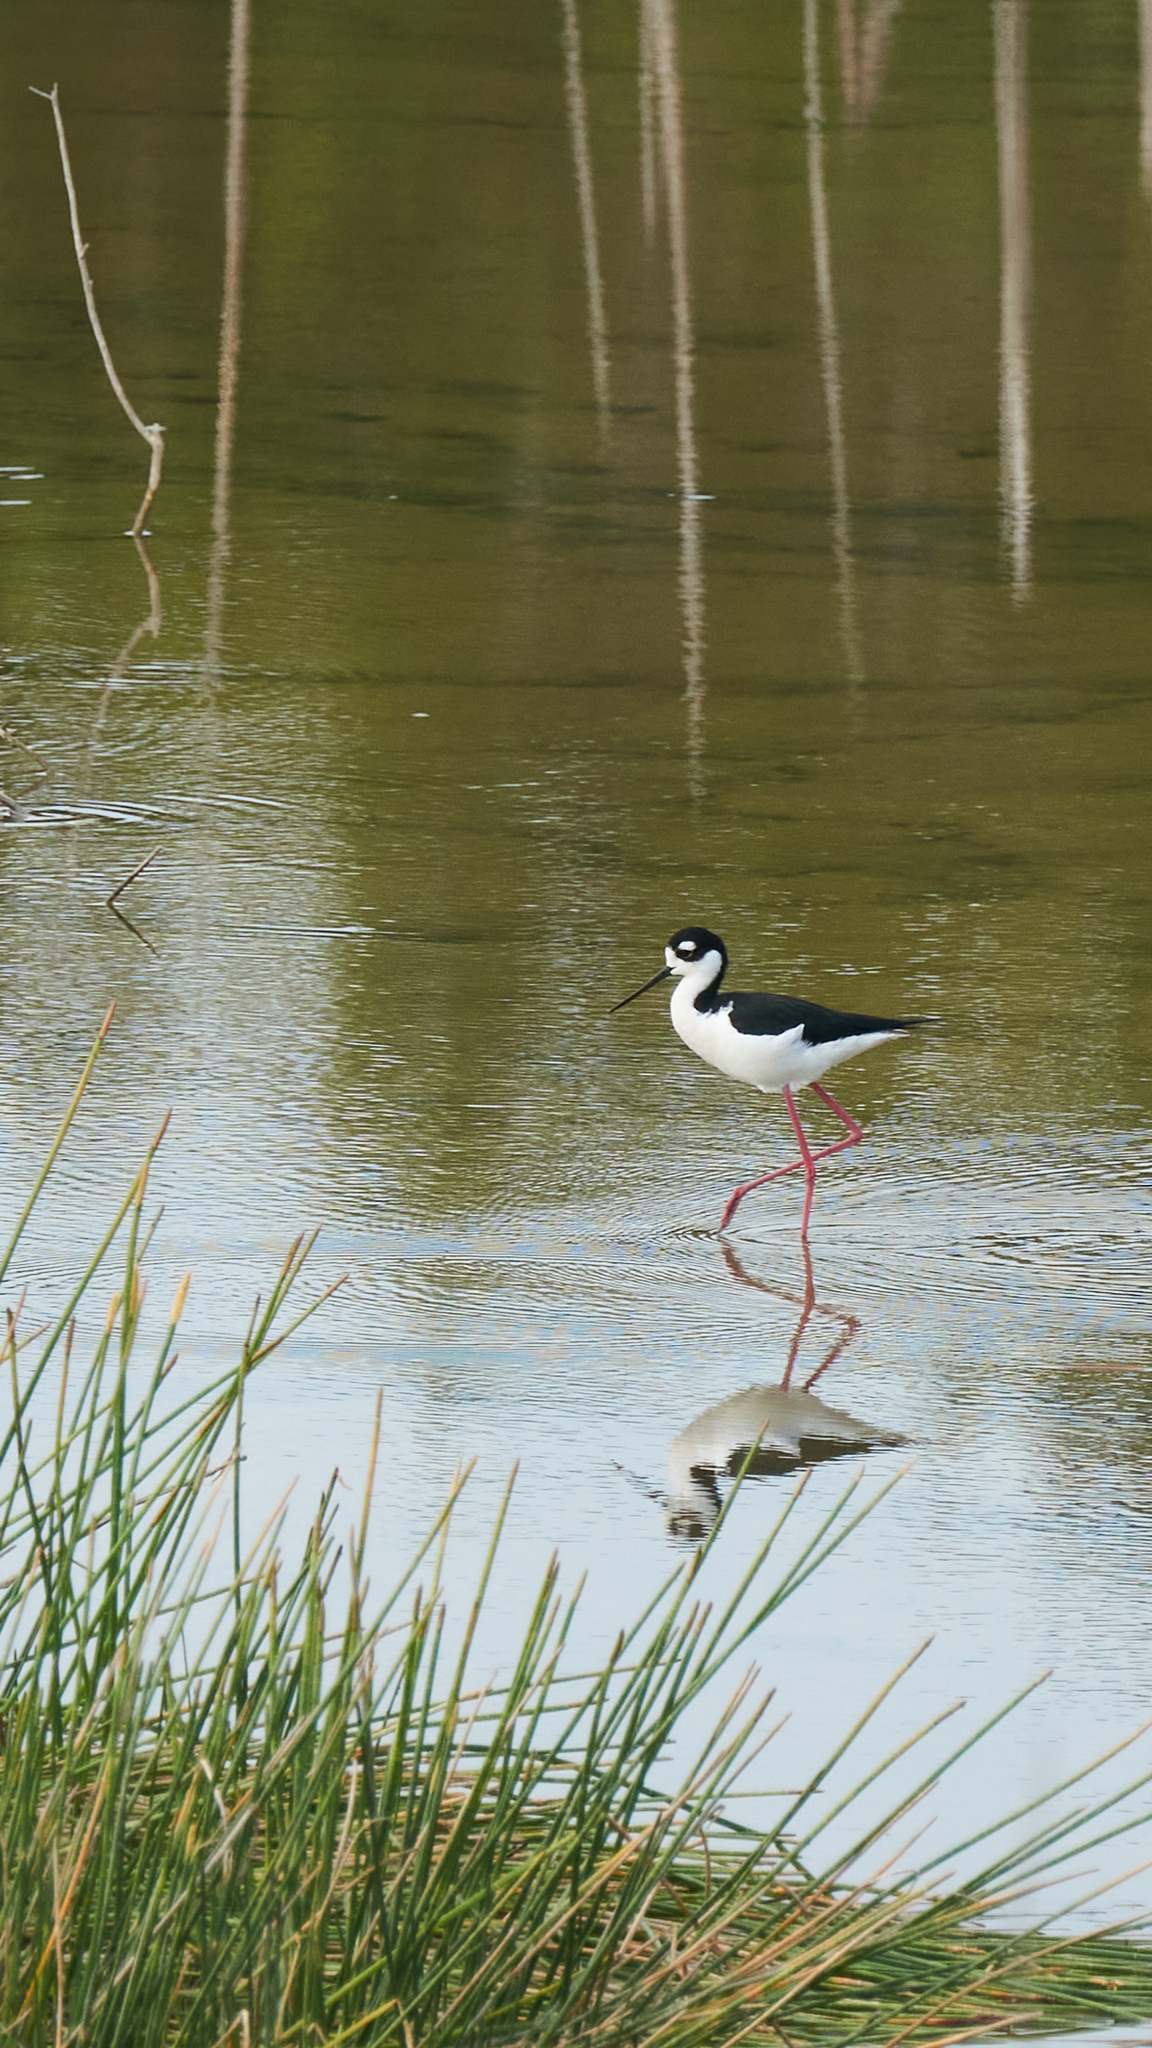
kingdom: Animalia
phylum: Chordata
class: Aves
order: Charadriiformes
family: Recurvirostridae
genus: Himantopus
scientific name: Himantopus mexicanus
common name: Black-necked stilt
